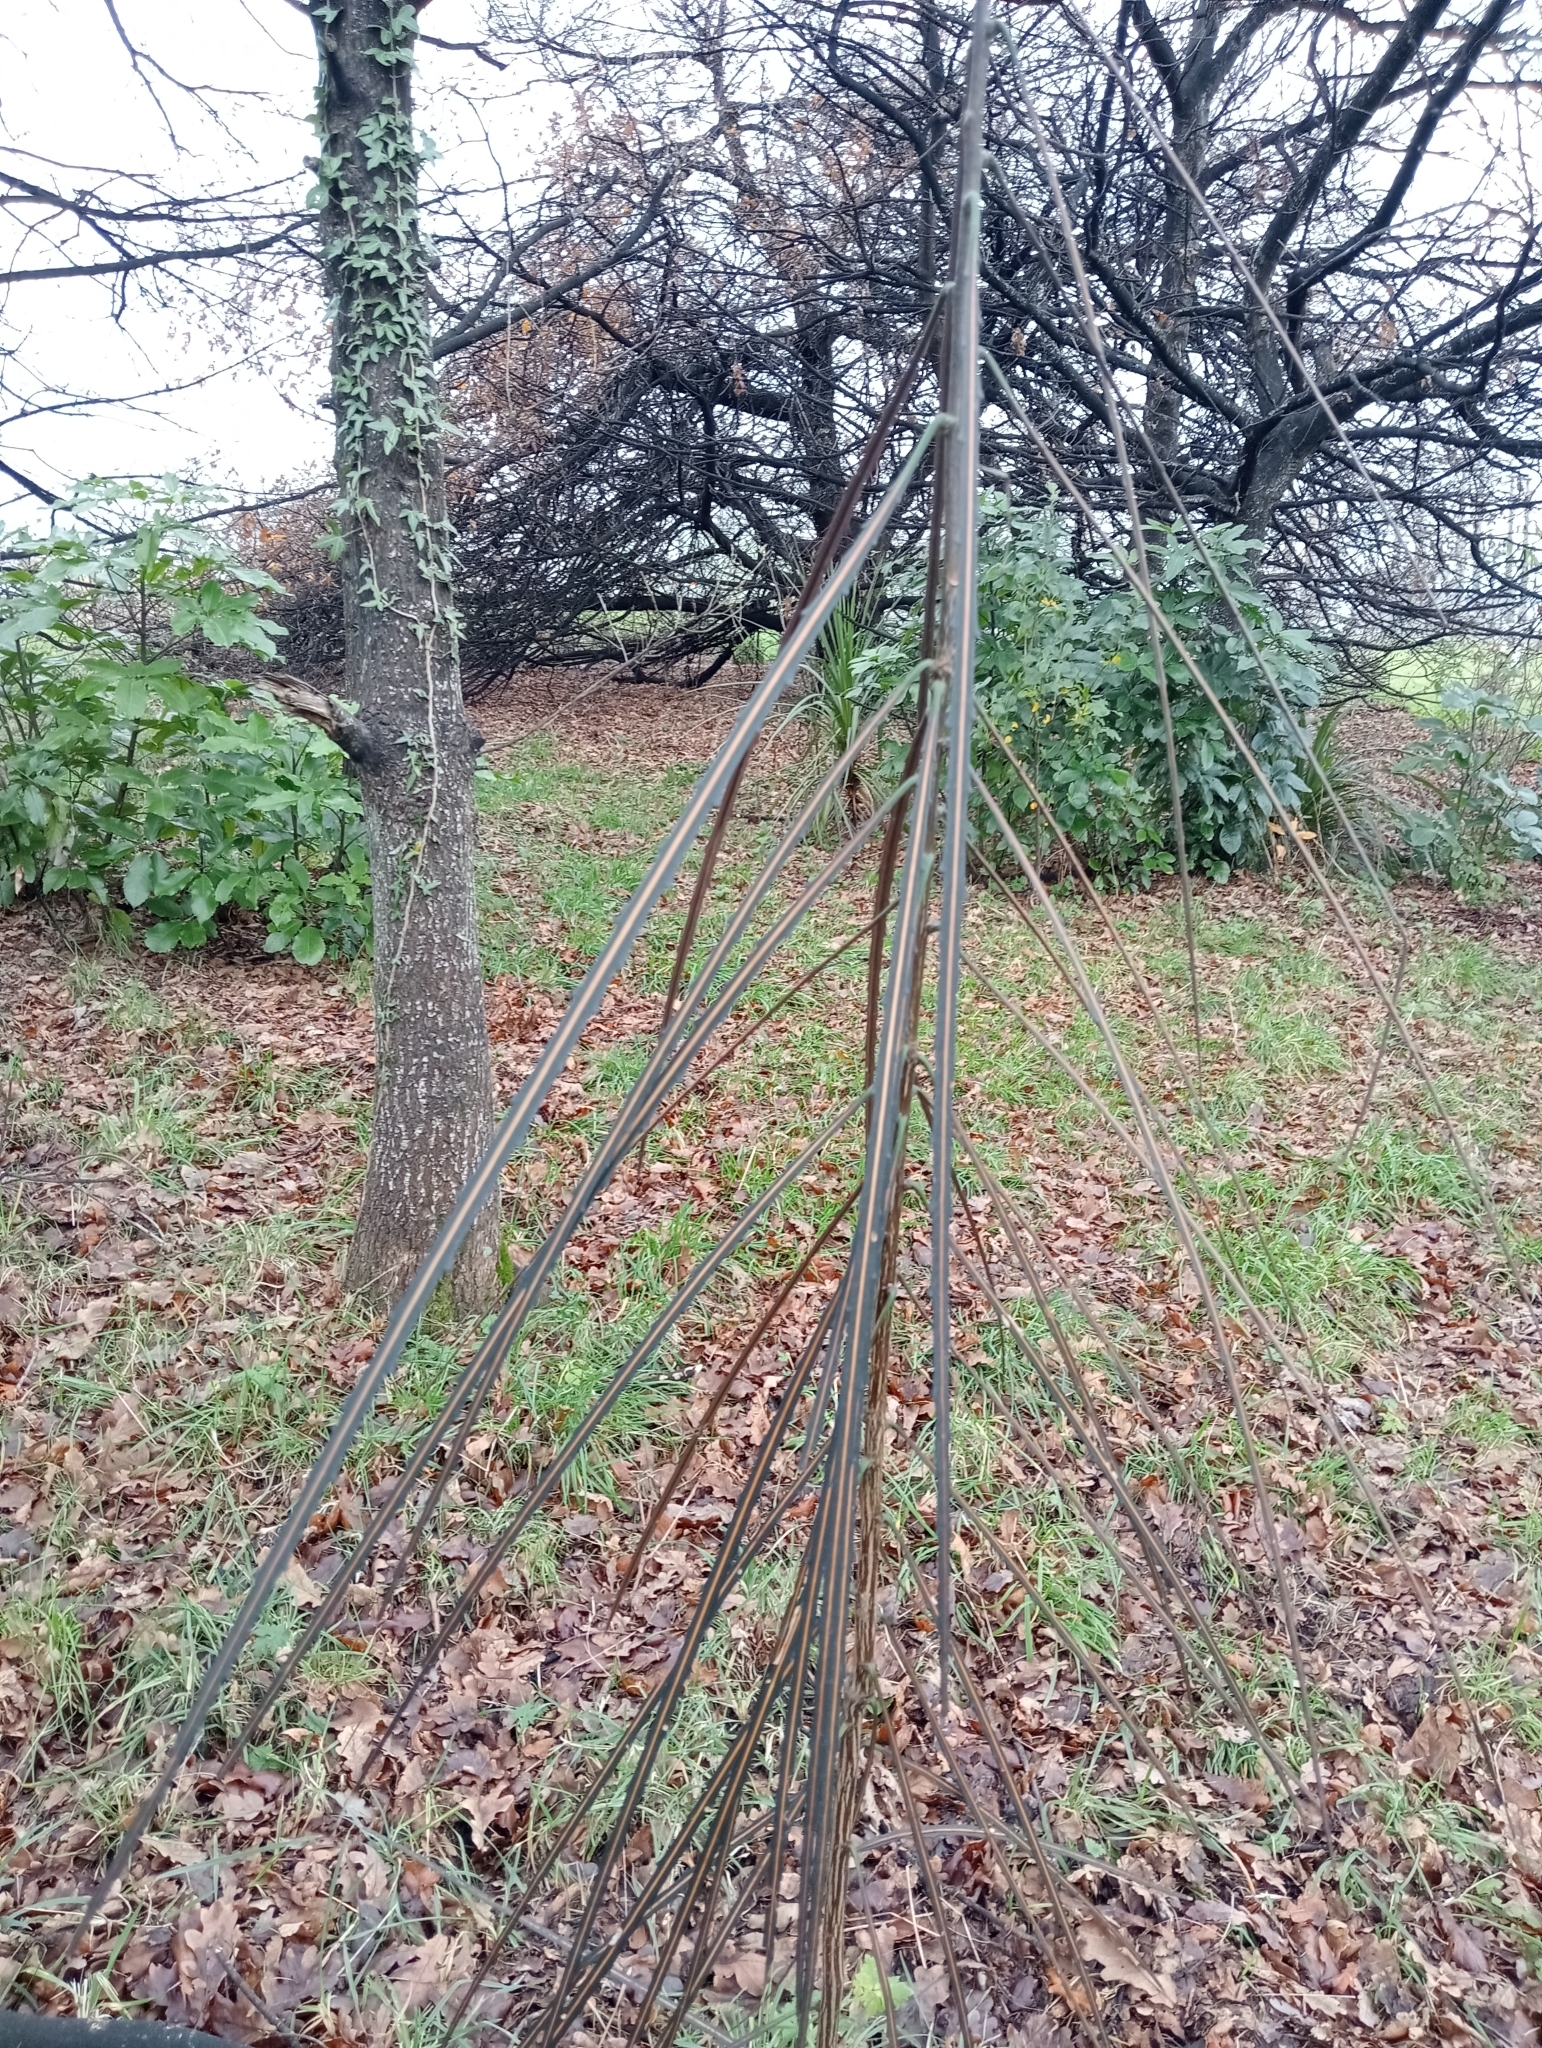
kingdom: Plantae
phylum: Tracheophyta
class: Magnoliopsida
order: Apiales
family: Araliaceae
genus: Pseudopanax
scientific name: Pseudopanax crassifolius
